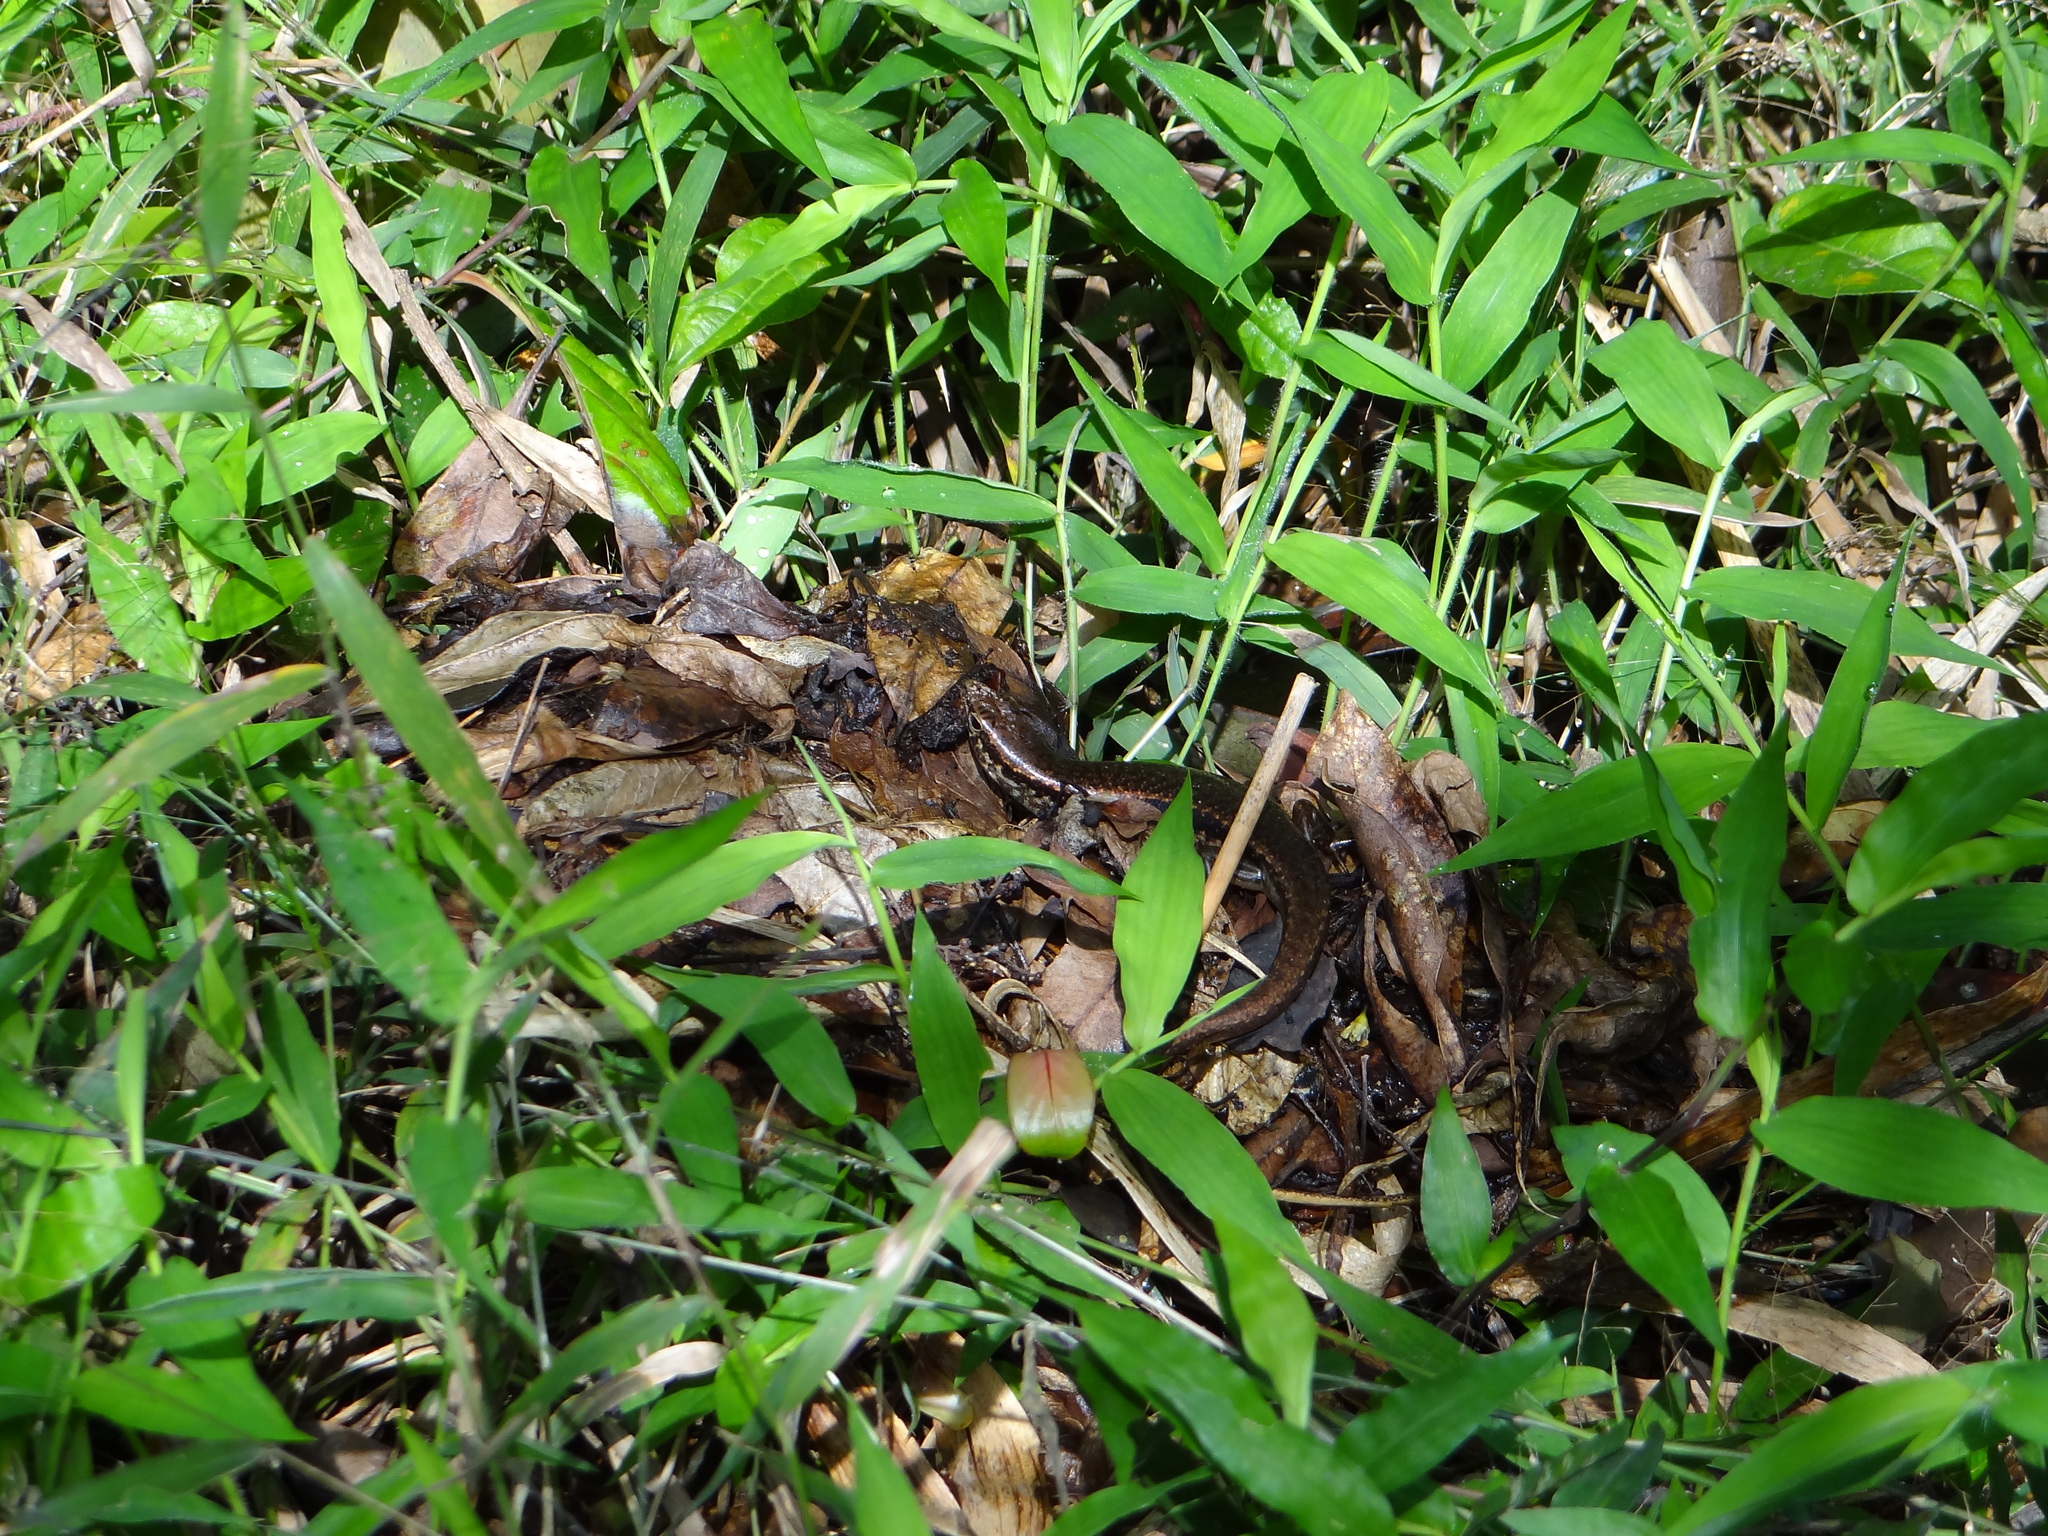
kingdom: Animalia
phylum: Chordata
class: Squamata
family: Scincidae
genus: Sphenomorphus
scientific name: Sphenomorphus indicus
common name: Himalayan forest skink
